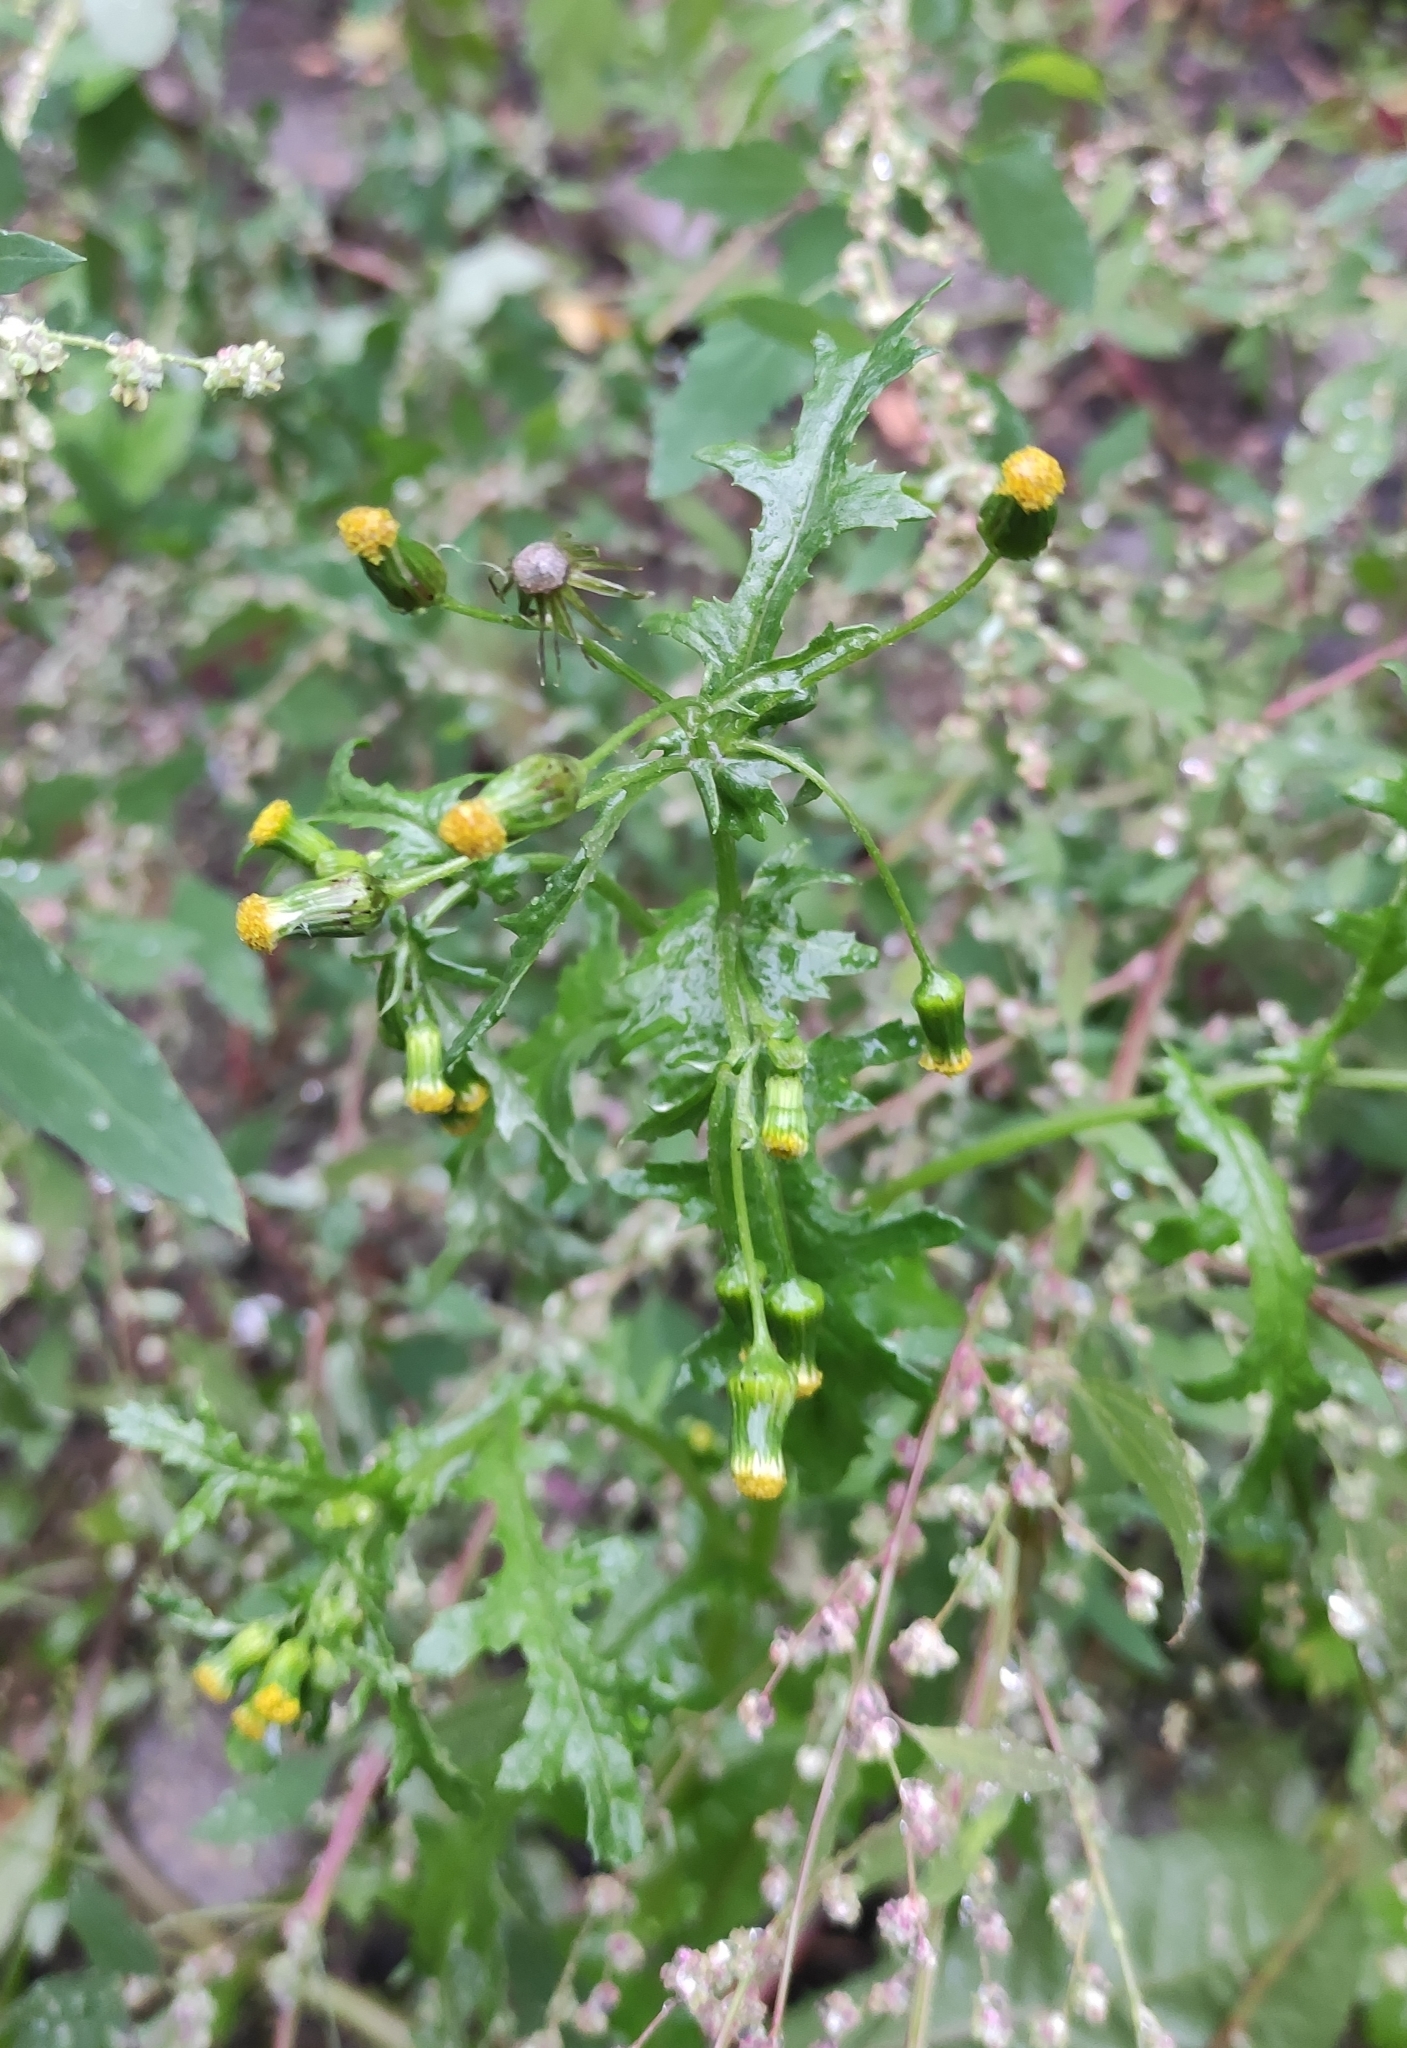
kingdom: Plantae
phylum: Tracheophyta
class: Magnoliopsida
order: Asterales
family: Asteraceae
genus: Senecio
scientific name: Senecio vulgaris
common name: Old-man-in-the-spring
